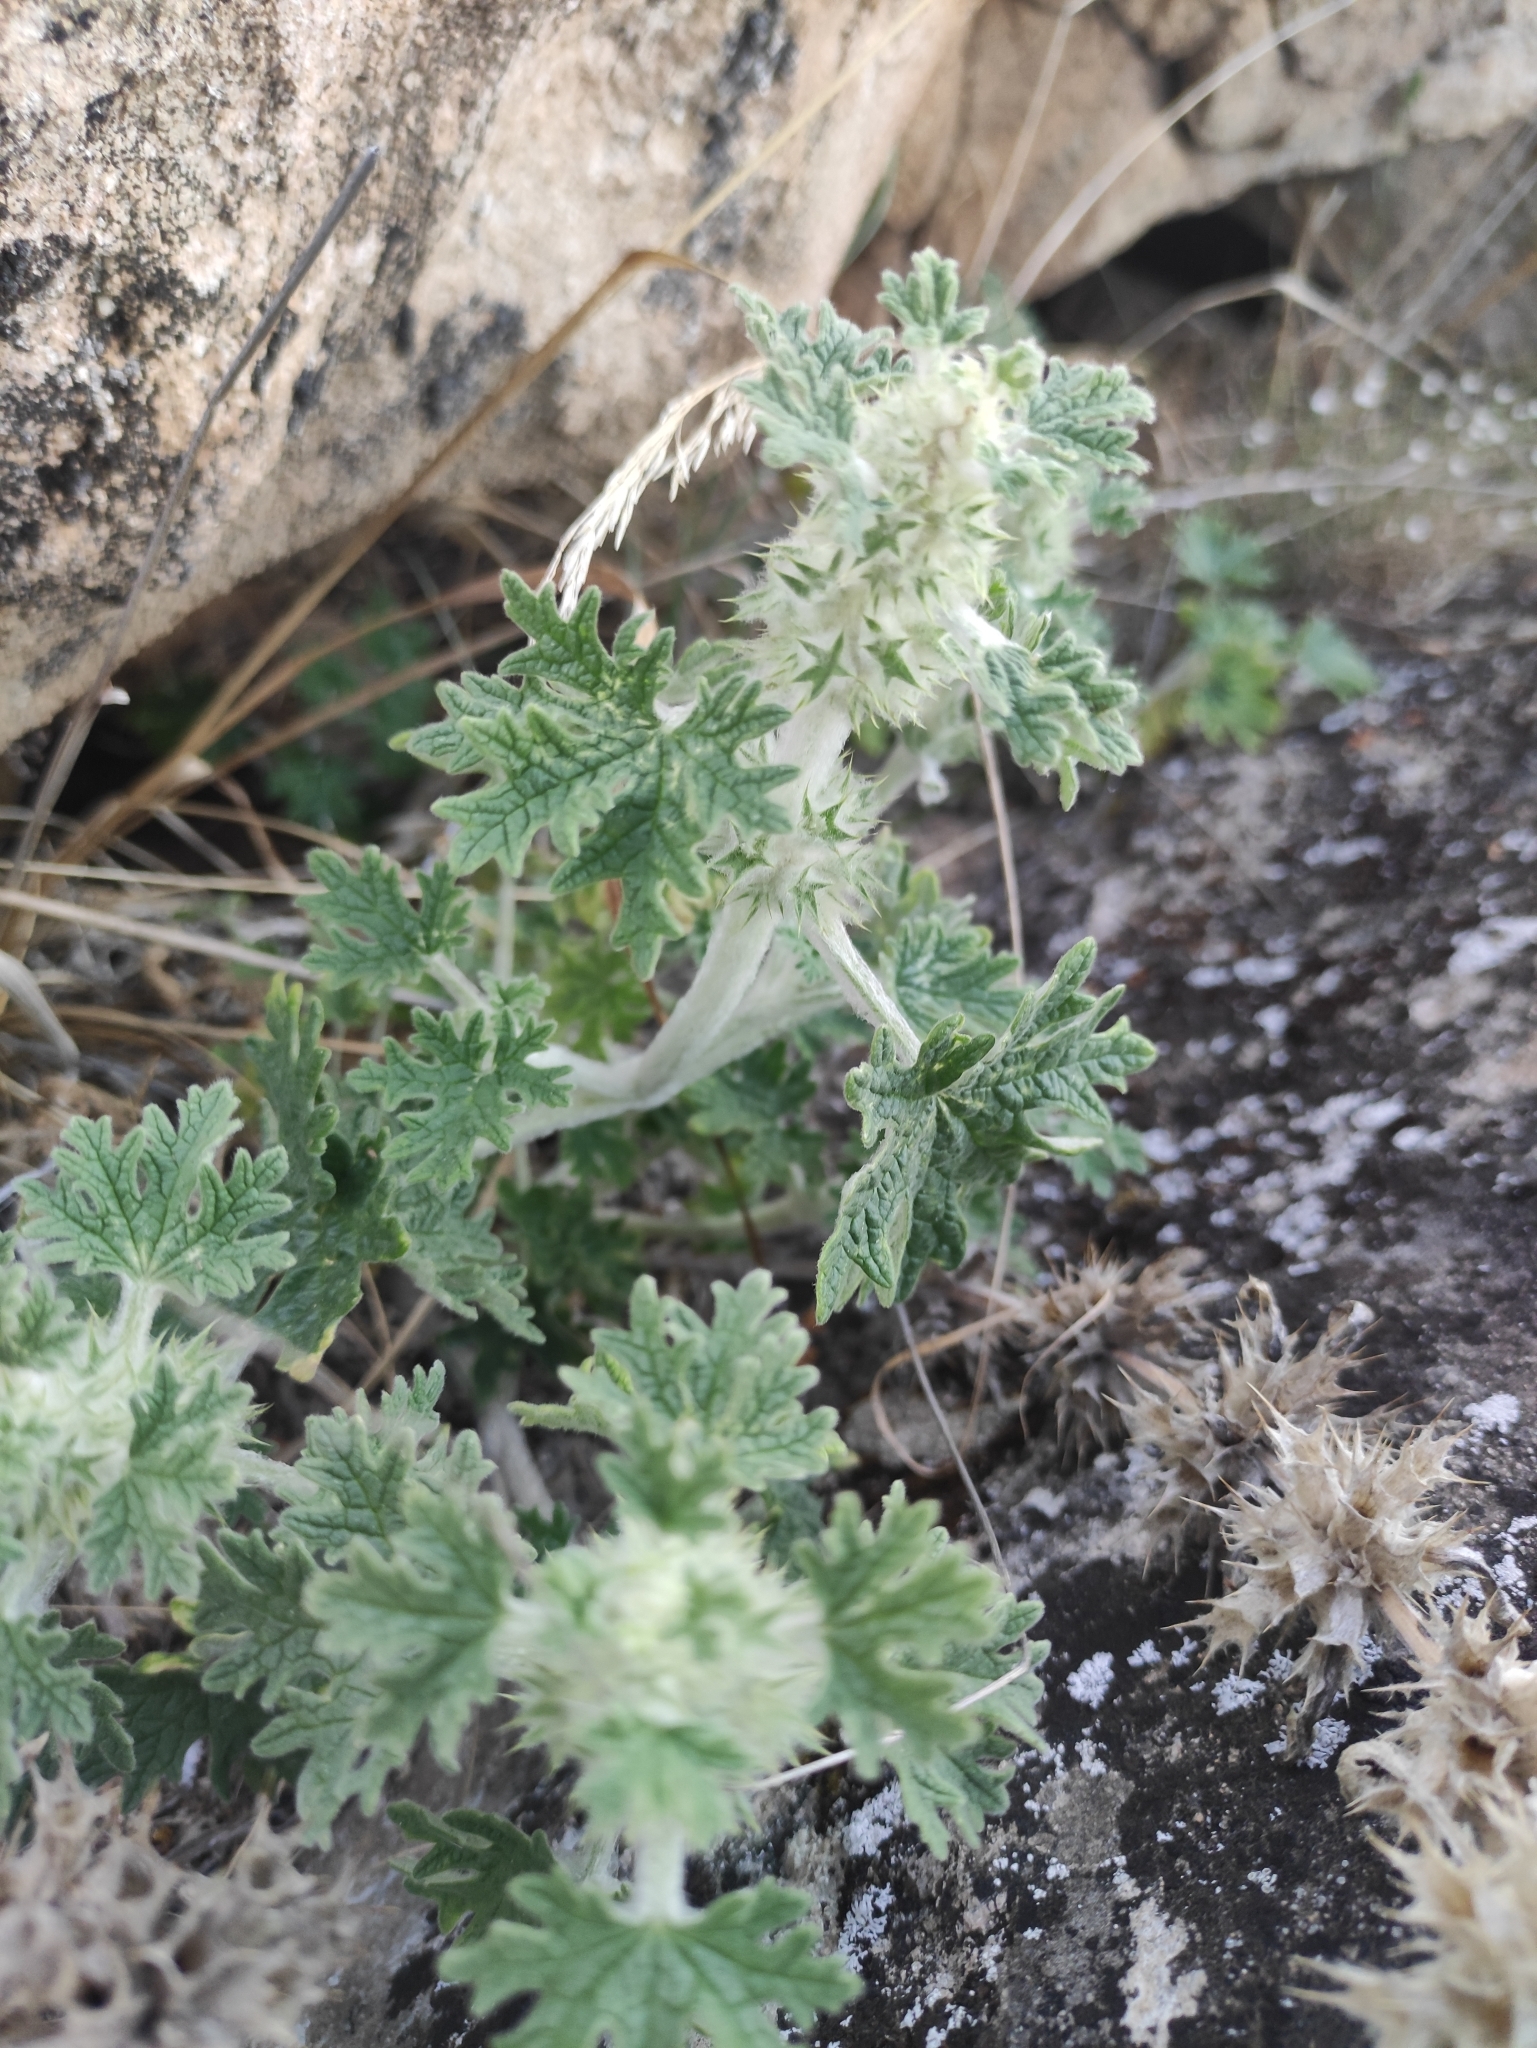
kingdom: Plantae
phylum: Tracheophyta
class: Magnoliopsida
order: Lamiales
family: Lamiaceae
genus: Panzerina
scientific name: Panzerina lanata
